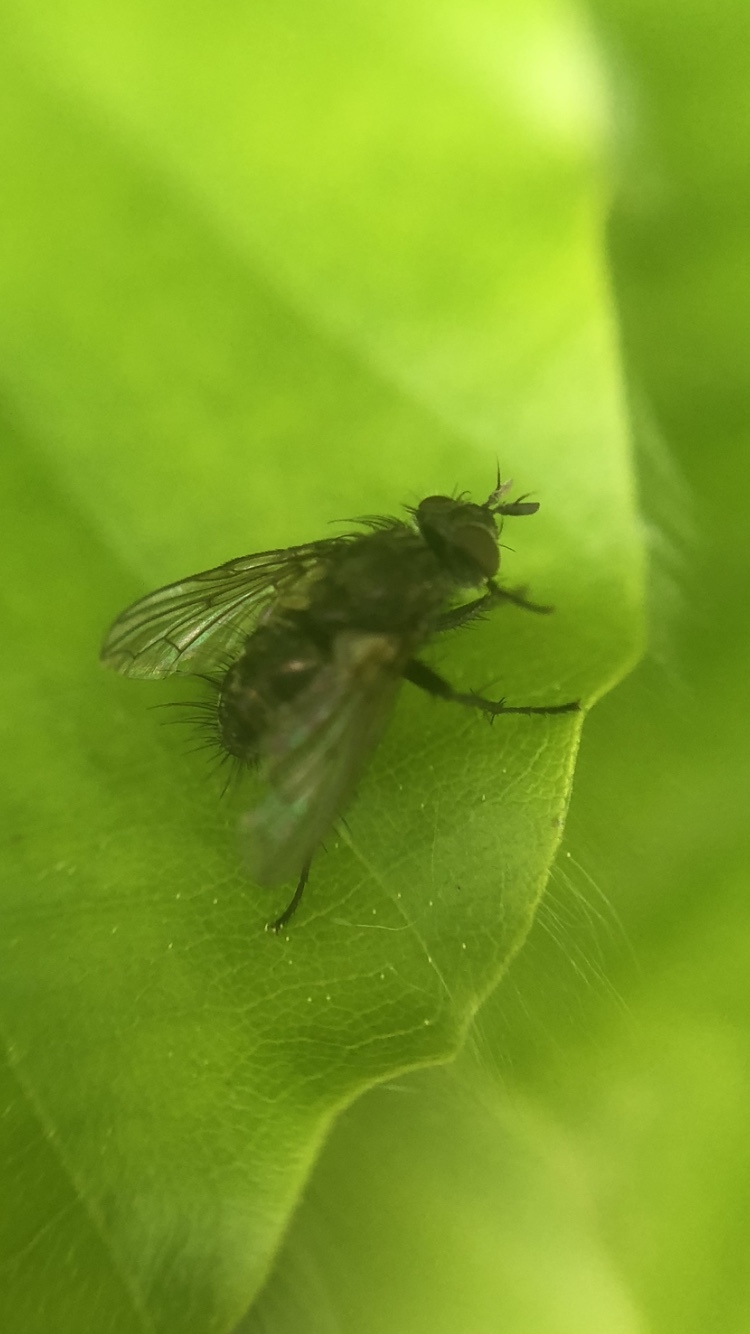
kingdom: Animalia
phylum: Arthropoda
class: Insecta
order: Diptera
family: Tachinidae
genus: Lypha
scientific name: Lypha dubia
